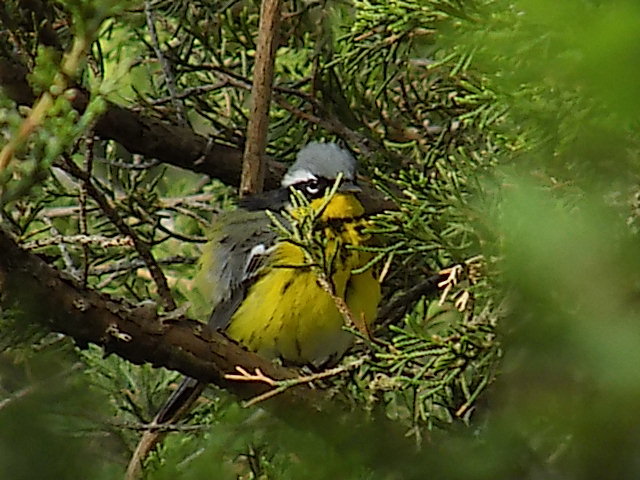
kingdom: Animalia
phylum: Chordata
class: Aves
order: Passeriformes
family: Parulidae
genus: Setophaga
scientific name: Setophaga magnolia
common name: Magnolia warbler
